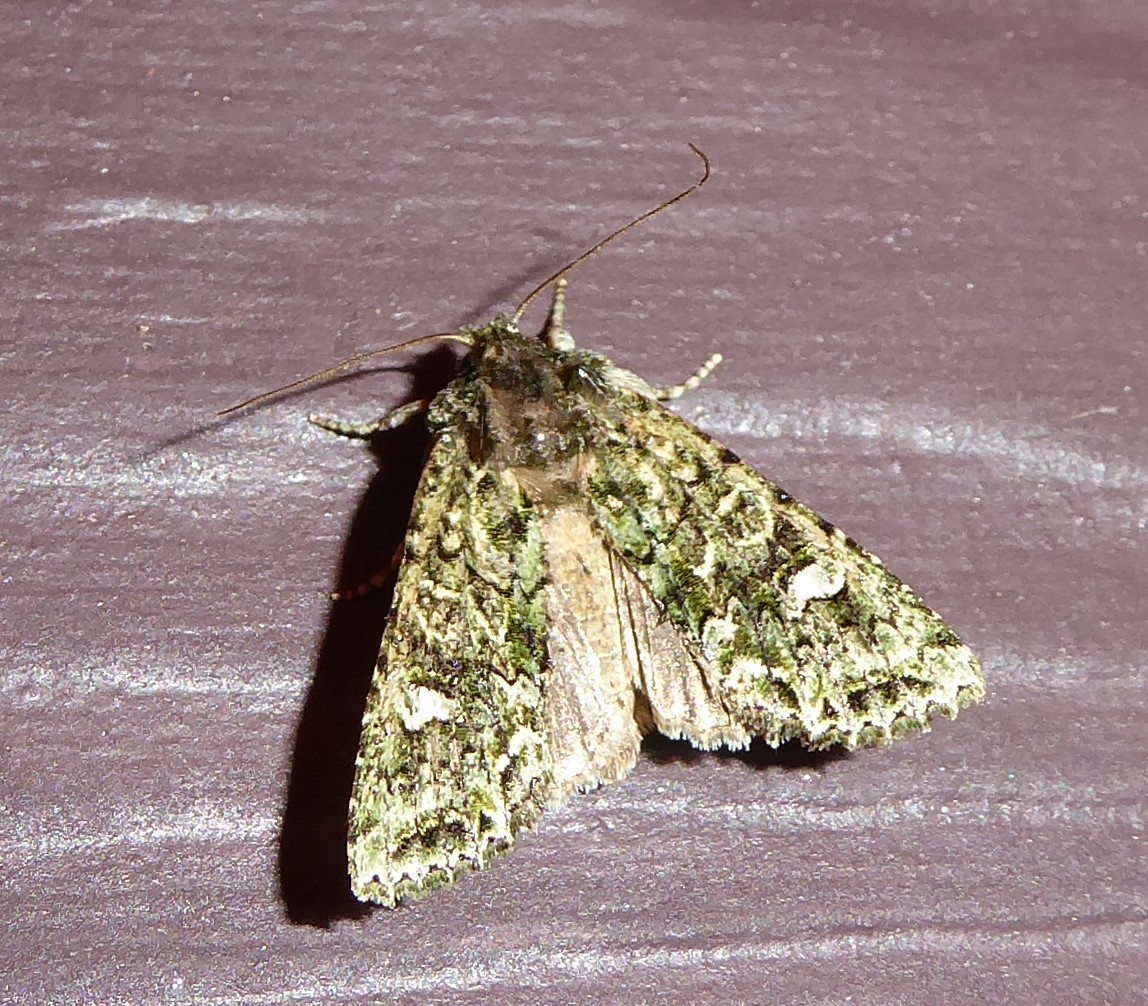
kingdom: Animalia
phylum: Arthropoda
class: Insecta
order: Lepidoptera
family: Noctuidae
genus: Ichneutica
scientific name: Ichneutica
